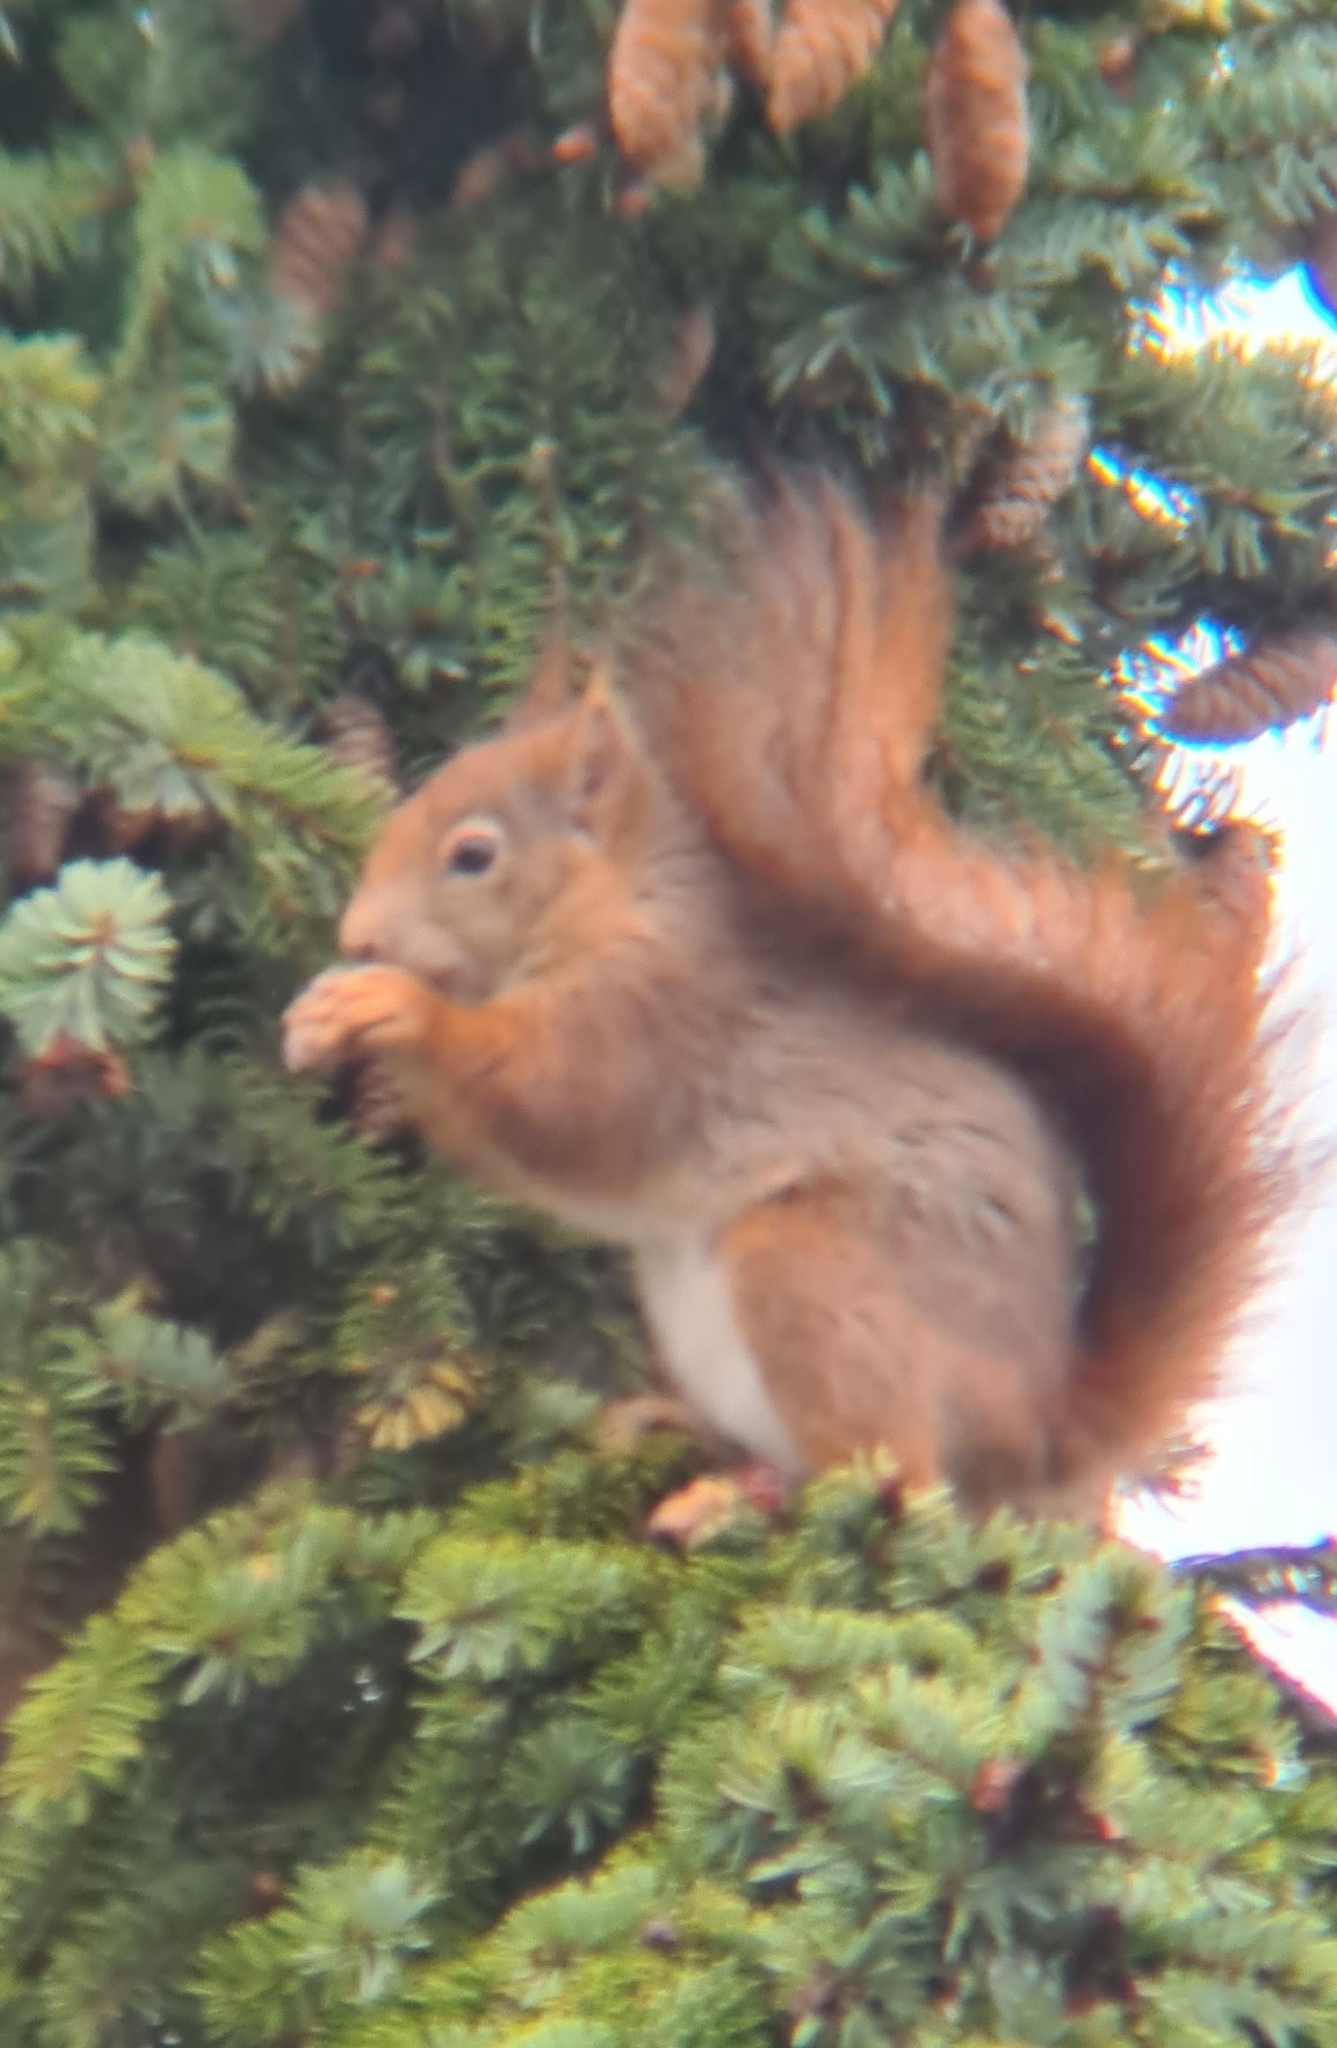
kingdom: Animalia
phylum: Chordata
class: Mammalia
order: Rodentia
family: Sciuridae
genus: Sciurus
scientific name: Sciurus vulgaris
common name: Eurasian red squirrel
